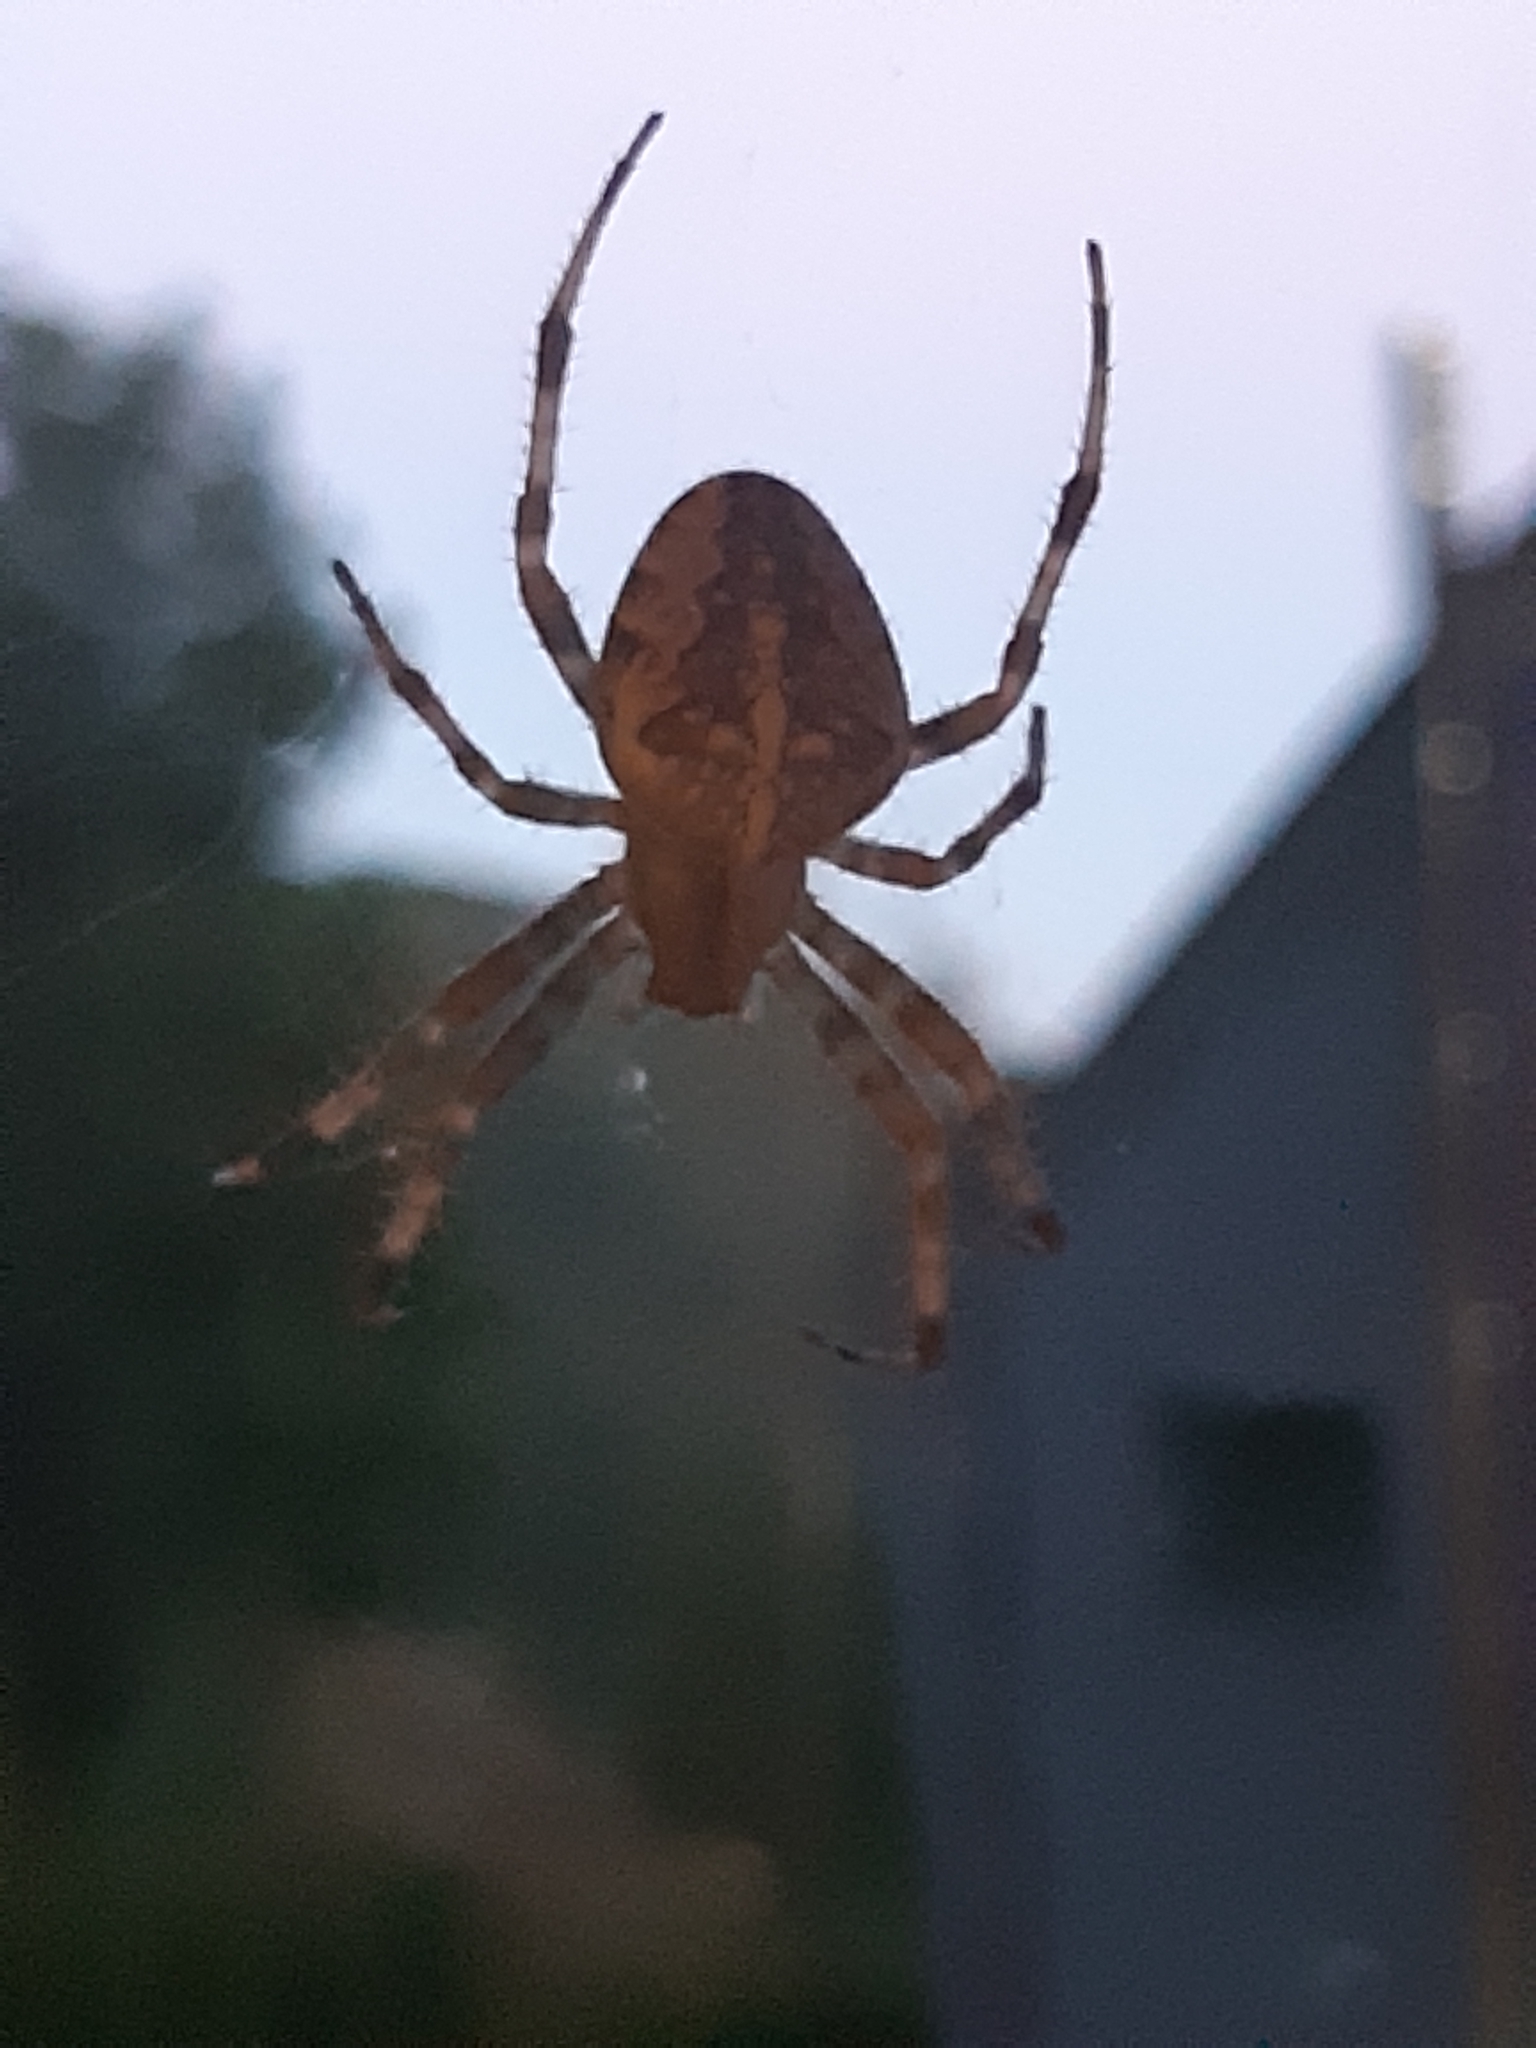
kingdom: Animalia
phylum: Arthropoda
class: Arachnida
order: Araneae
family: Araneidae
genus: Araneus
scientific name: Araneus diadematus
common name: Cross orbweaver
